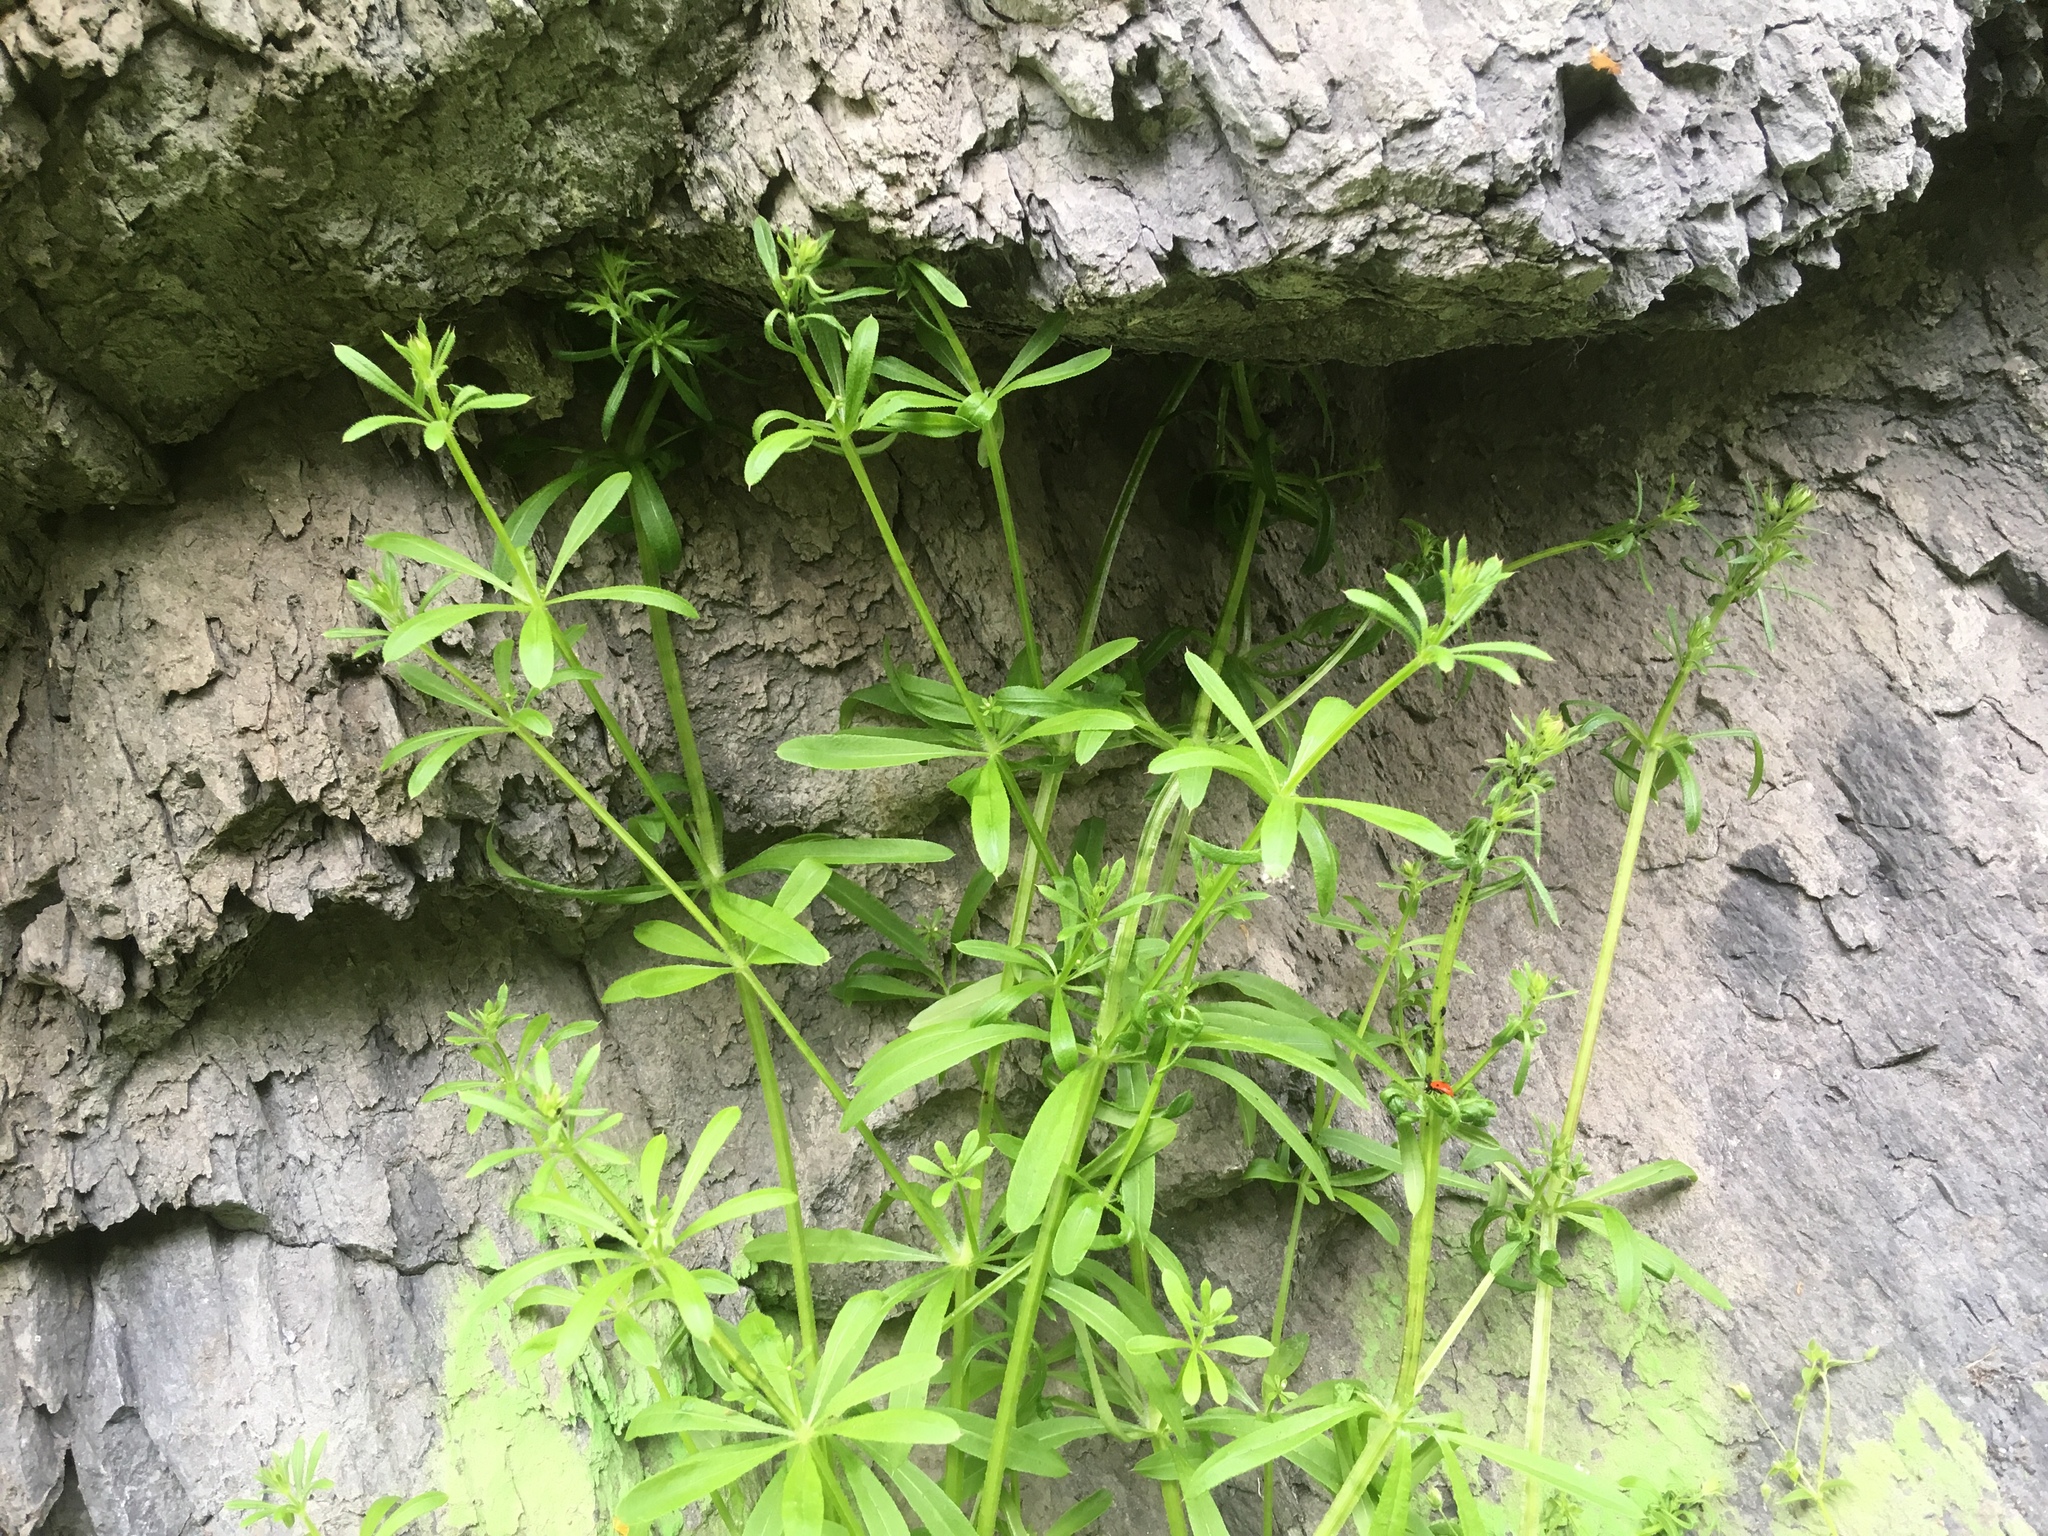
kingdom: Plantae
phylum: Tracheophyta
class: Magnoliopsida
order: Gentianales
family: Rubiaceae
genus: Galium
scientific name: Galium aparine
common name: Cleavers
